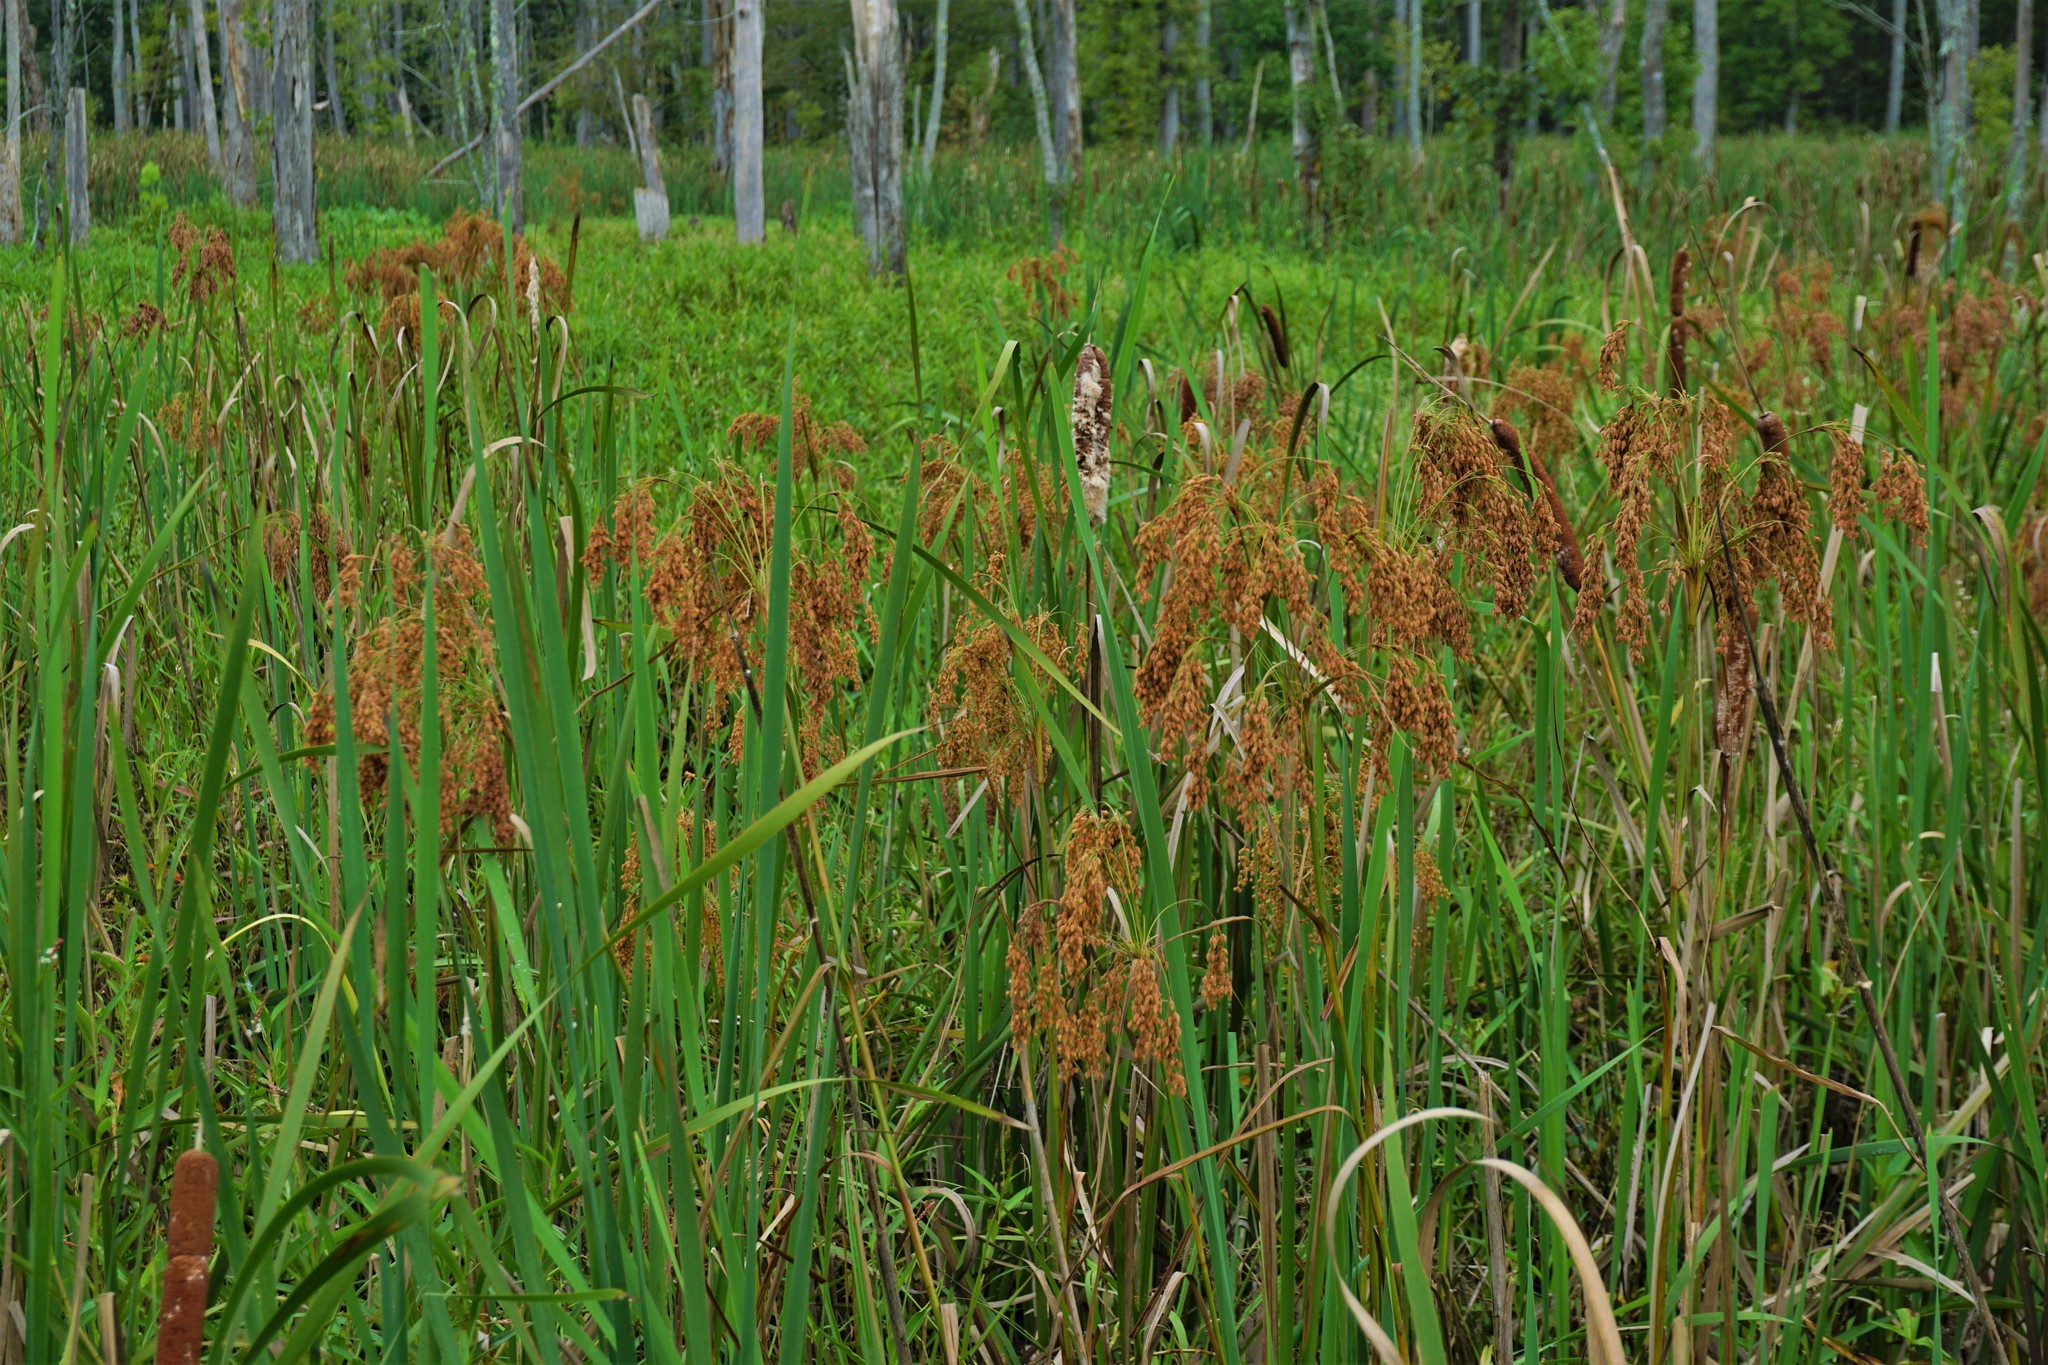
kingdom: Plantae
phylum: Tracheophyta
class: Liliopsida
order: Poales
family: Cyperaceae
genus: Scirpus
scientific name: Scirpus cyperinus
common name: Black-sheathed bulrush
